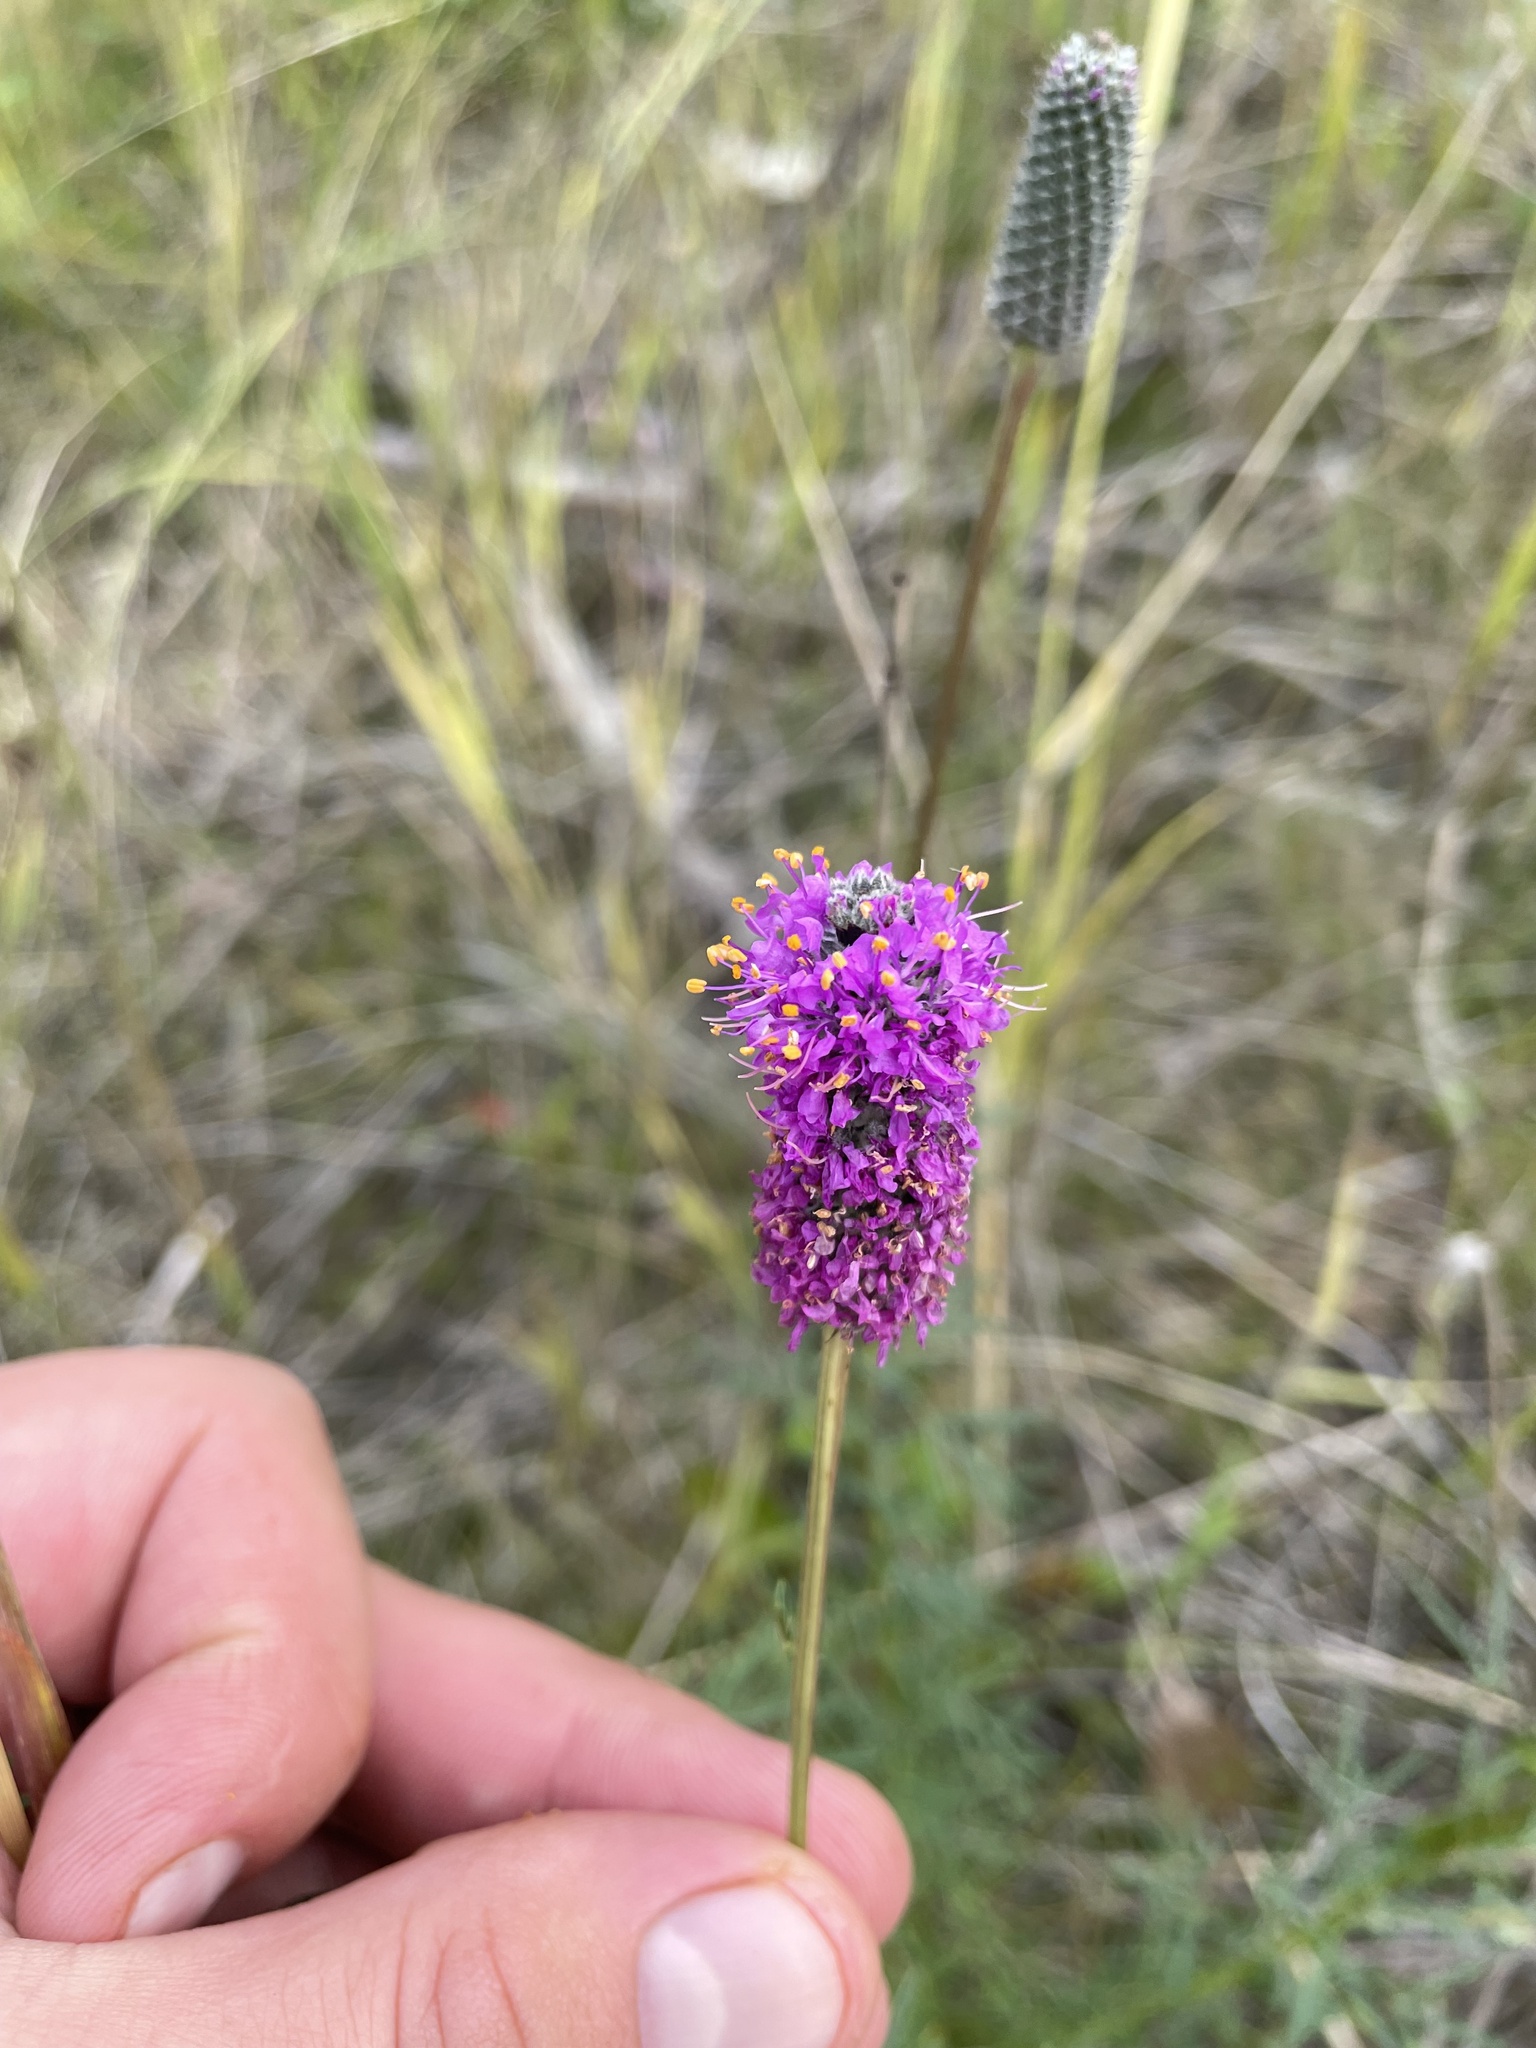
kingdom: Plantae
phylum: Tracheophyta
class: Magnoliopsida
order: Fabales
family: Fabaceae
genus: Dalea
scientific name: Dalea purpurea
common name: Purple prairie-clover
